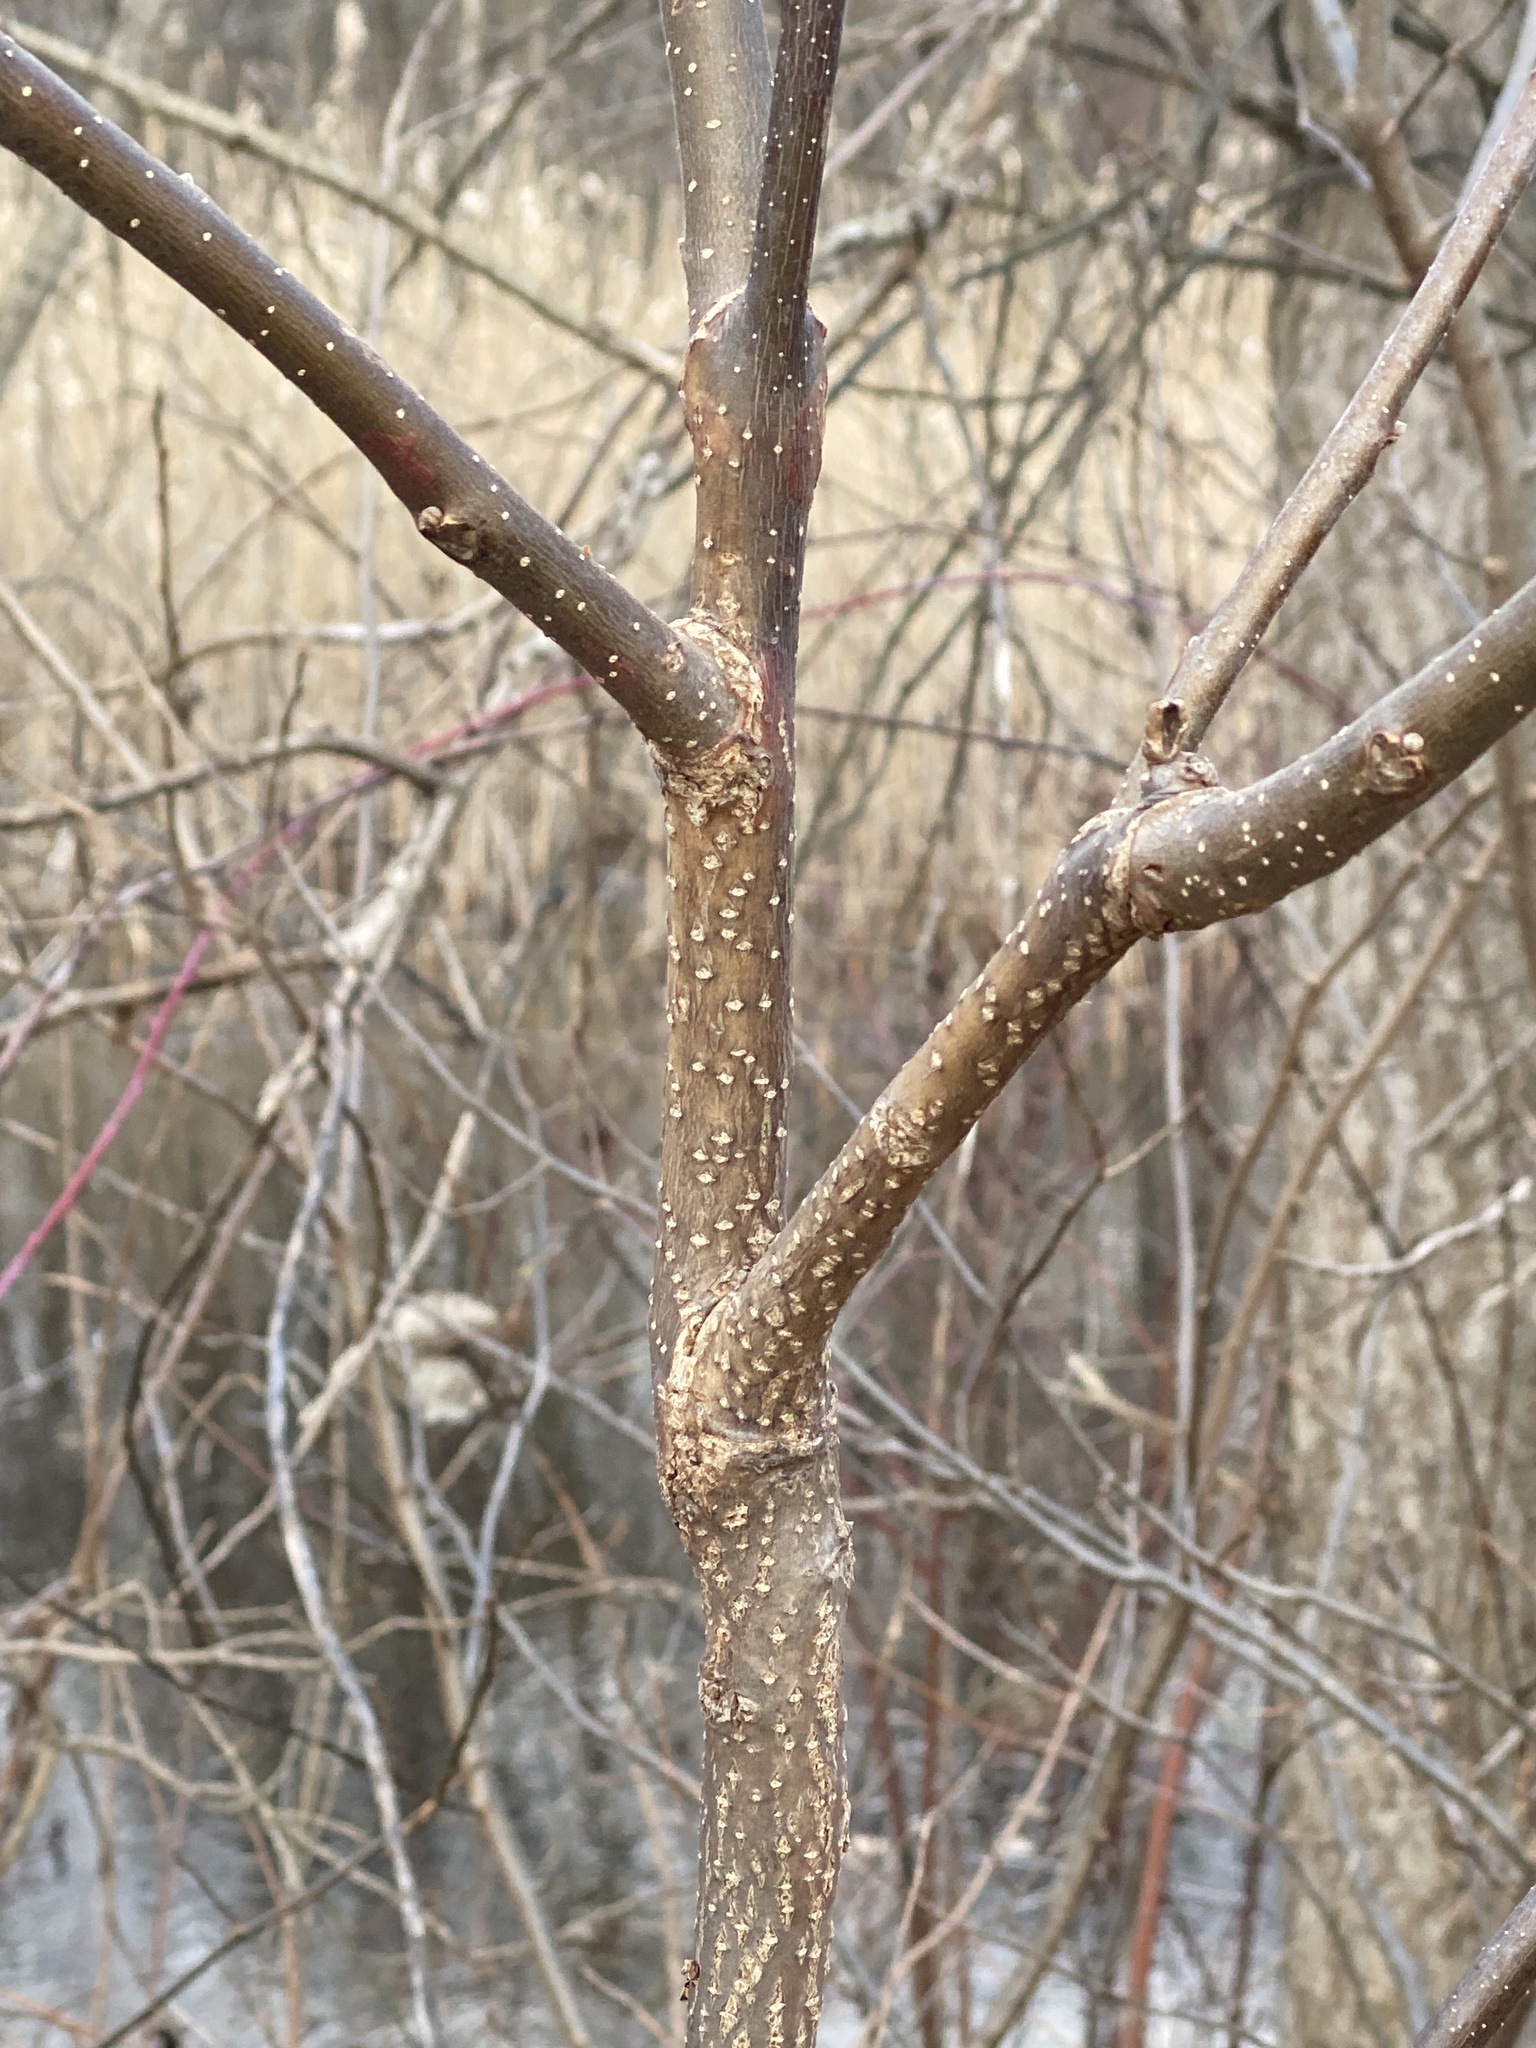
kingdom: Plantae
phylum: Tracheophyta
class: Magnoliopsida
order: Fagales
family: Juglandaceae
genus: Juglans
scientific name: Juglans nigra
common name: Black walnut
